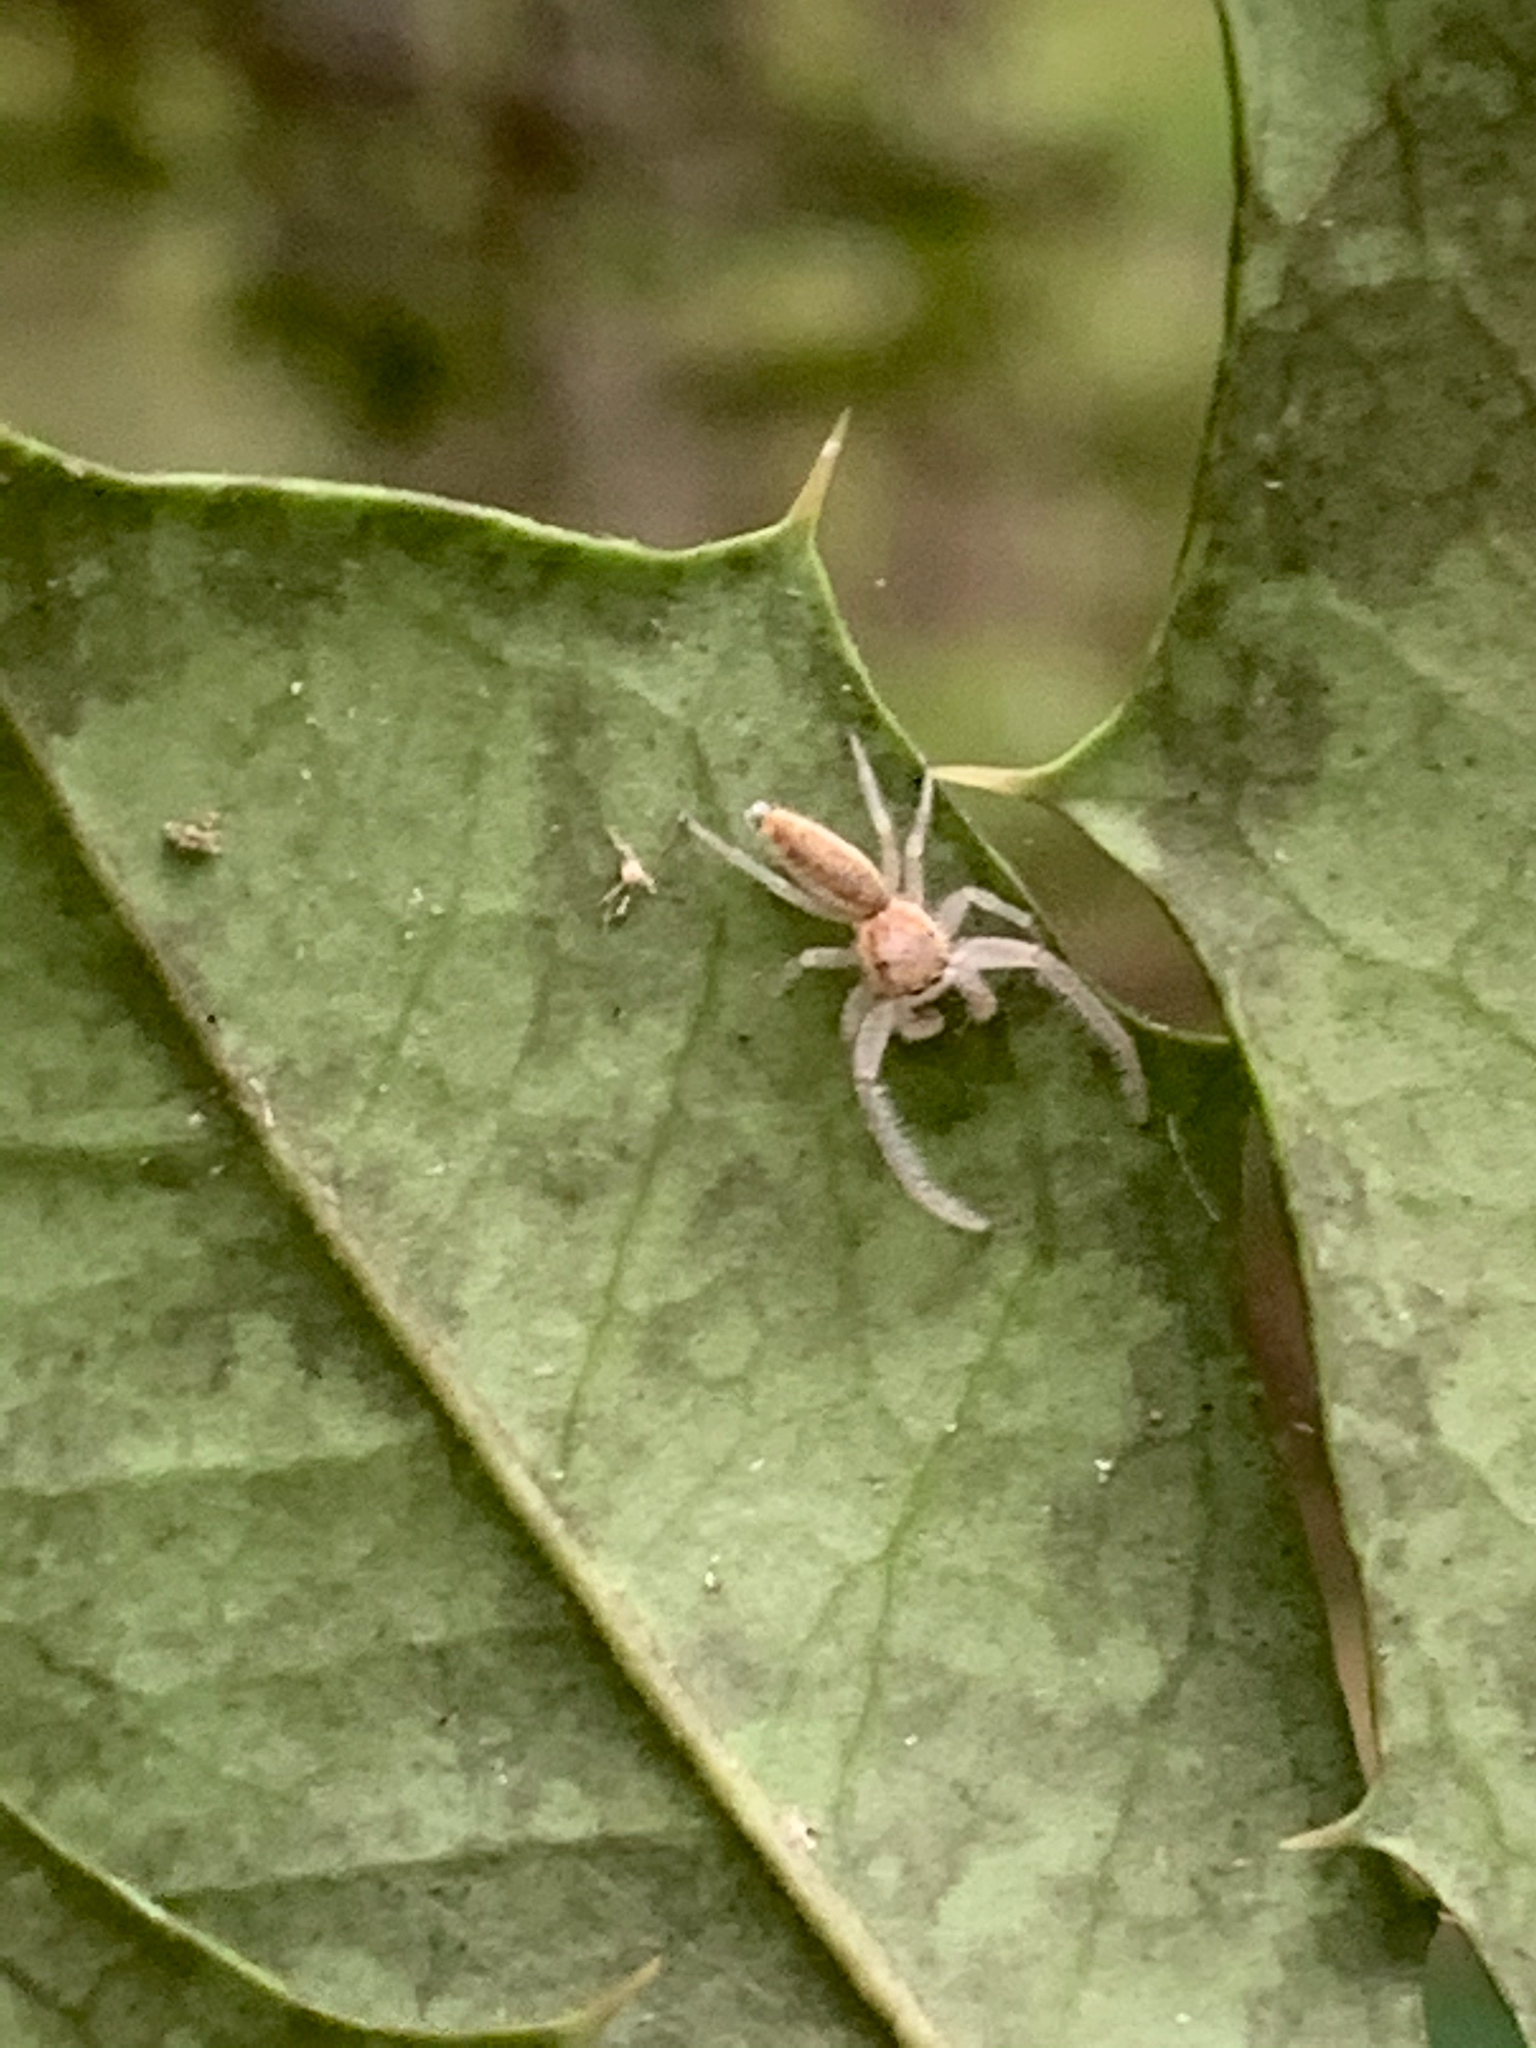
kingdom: Animalia
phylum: Arthropoda
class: Arachnida
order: Araneae
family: Salticidae
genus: Hentzia
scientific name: Hentzia mitrata
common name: White-jawed jumping spider
